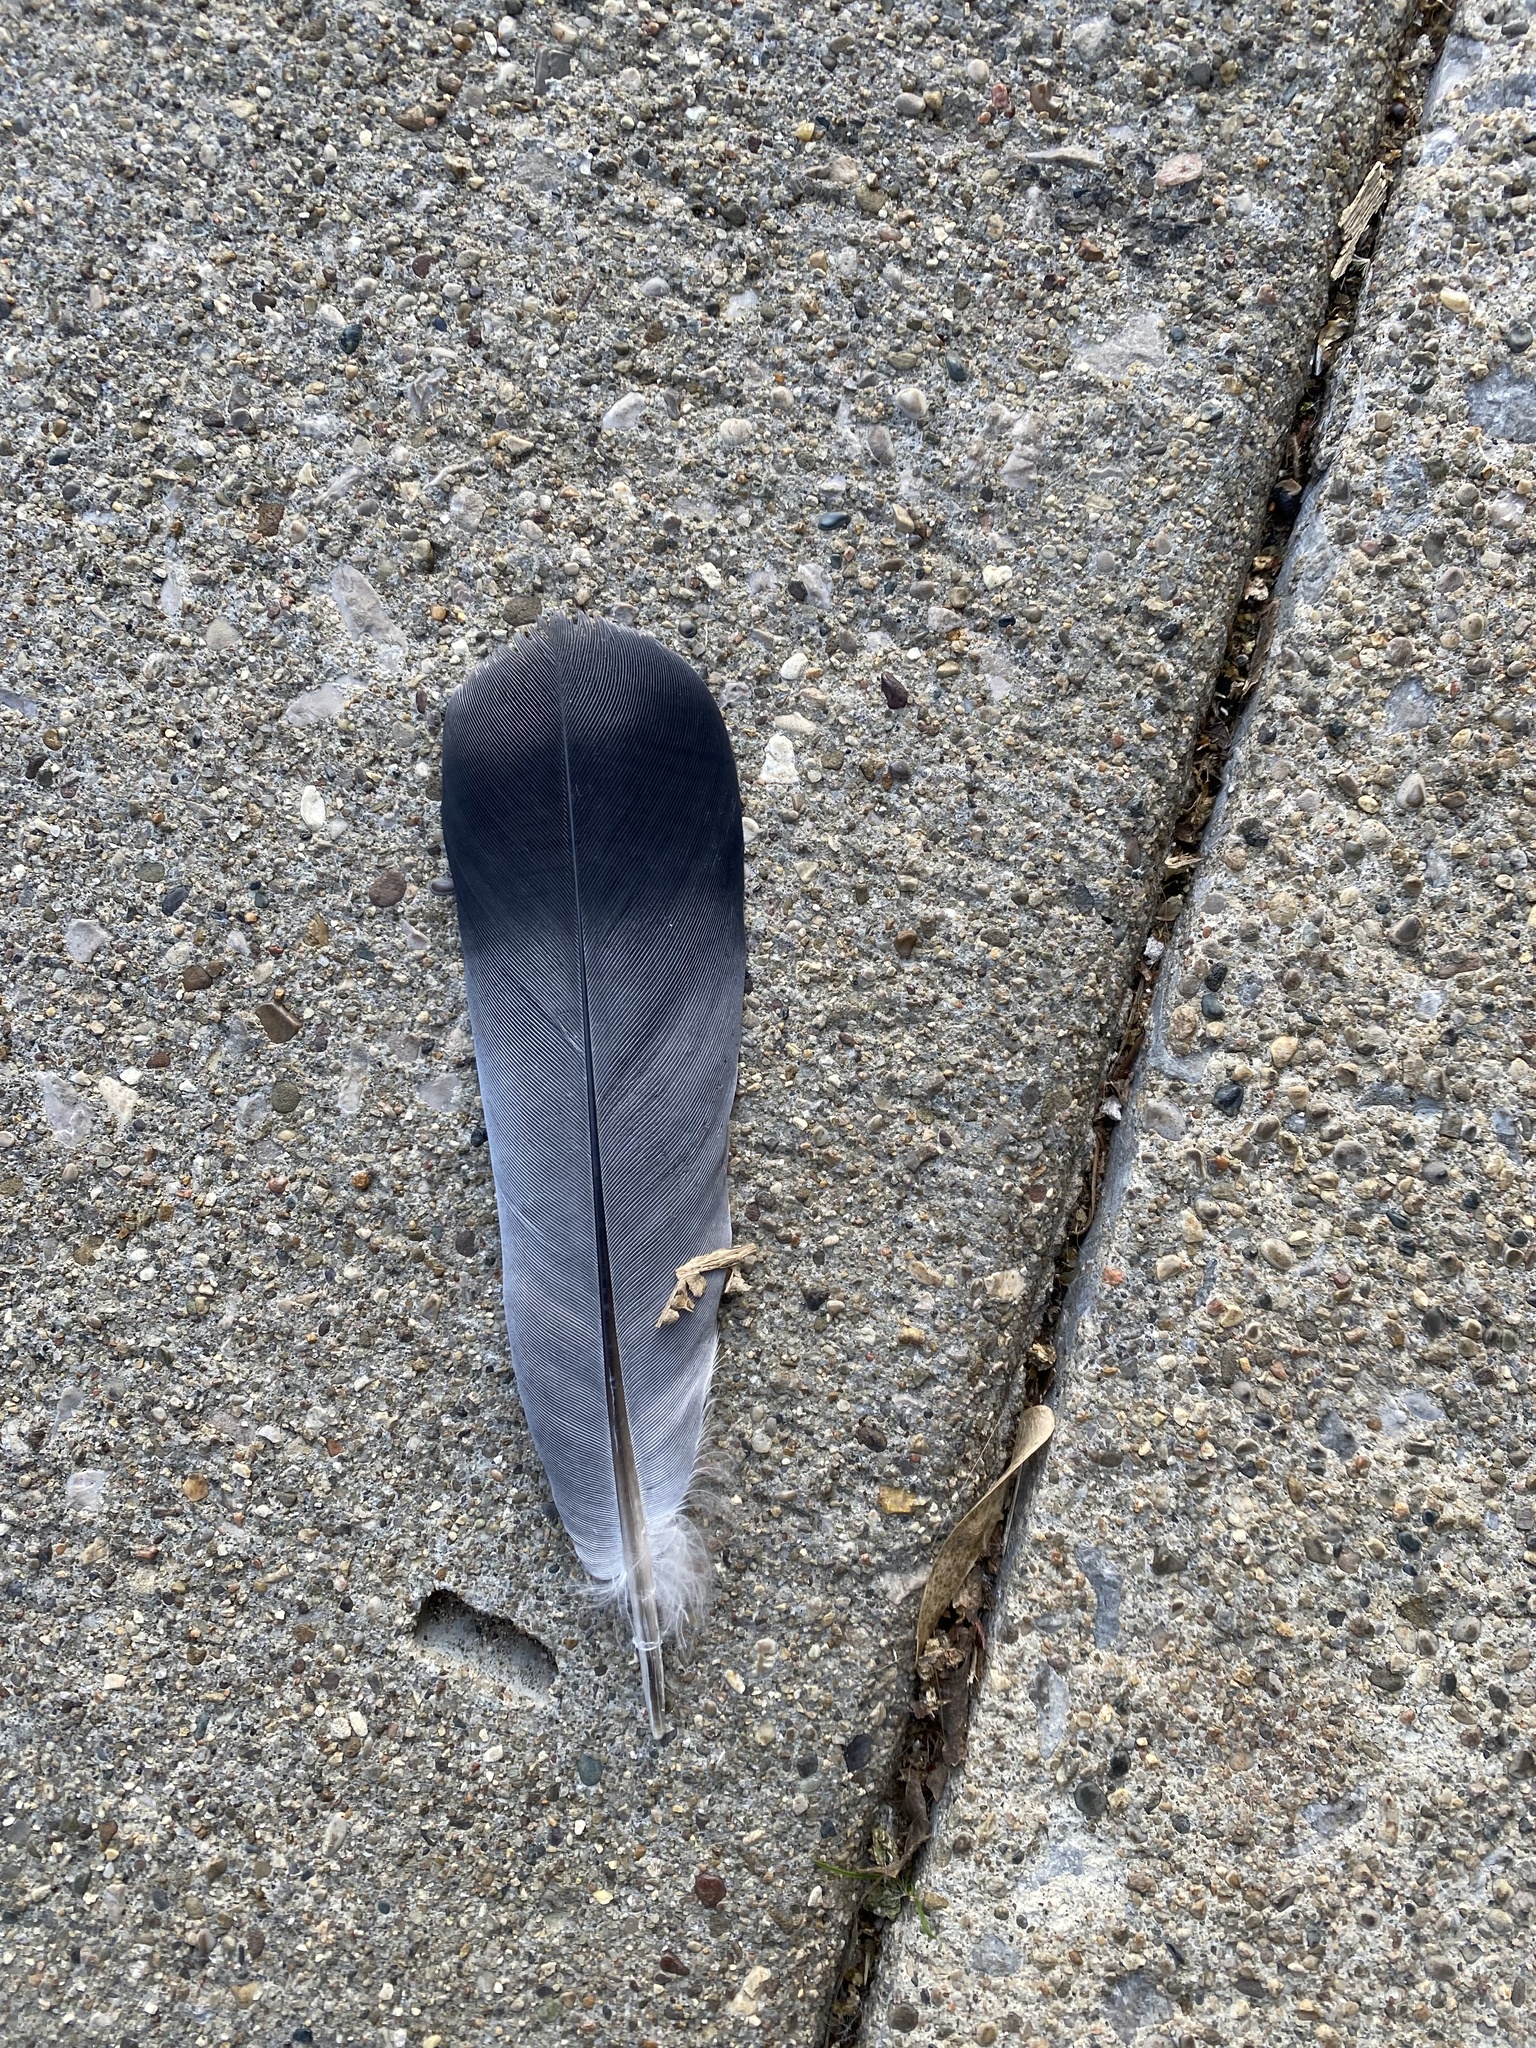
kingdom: Animalia
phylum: Chordata
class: Aves
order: Columbiformes
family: Columbidae
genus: Columba
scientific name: Columba livia
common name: Rock pigeon
